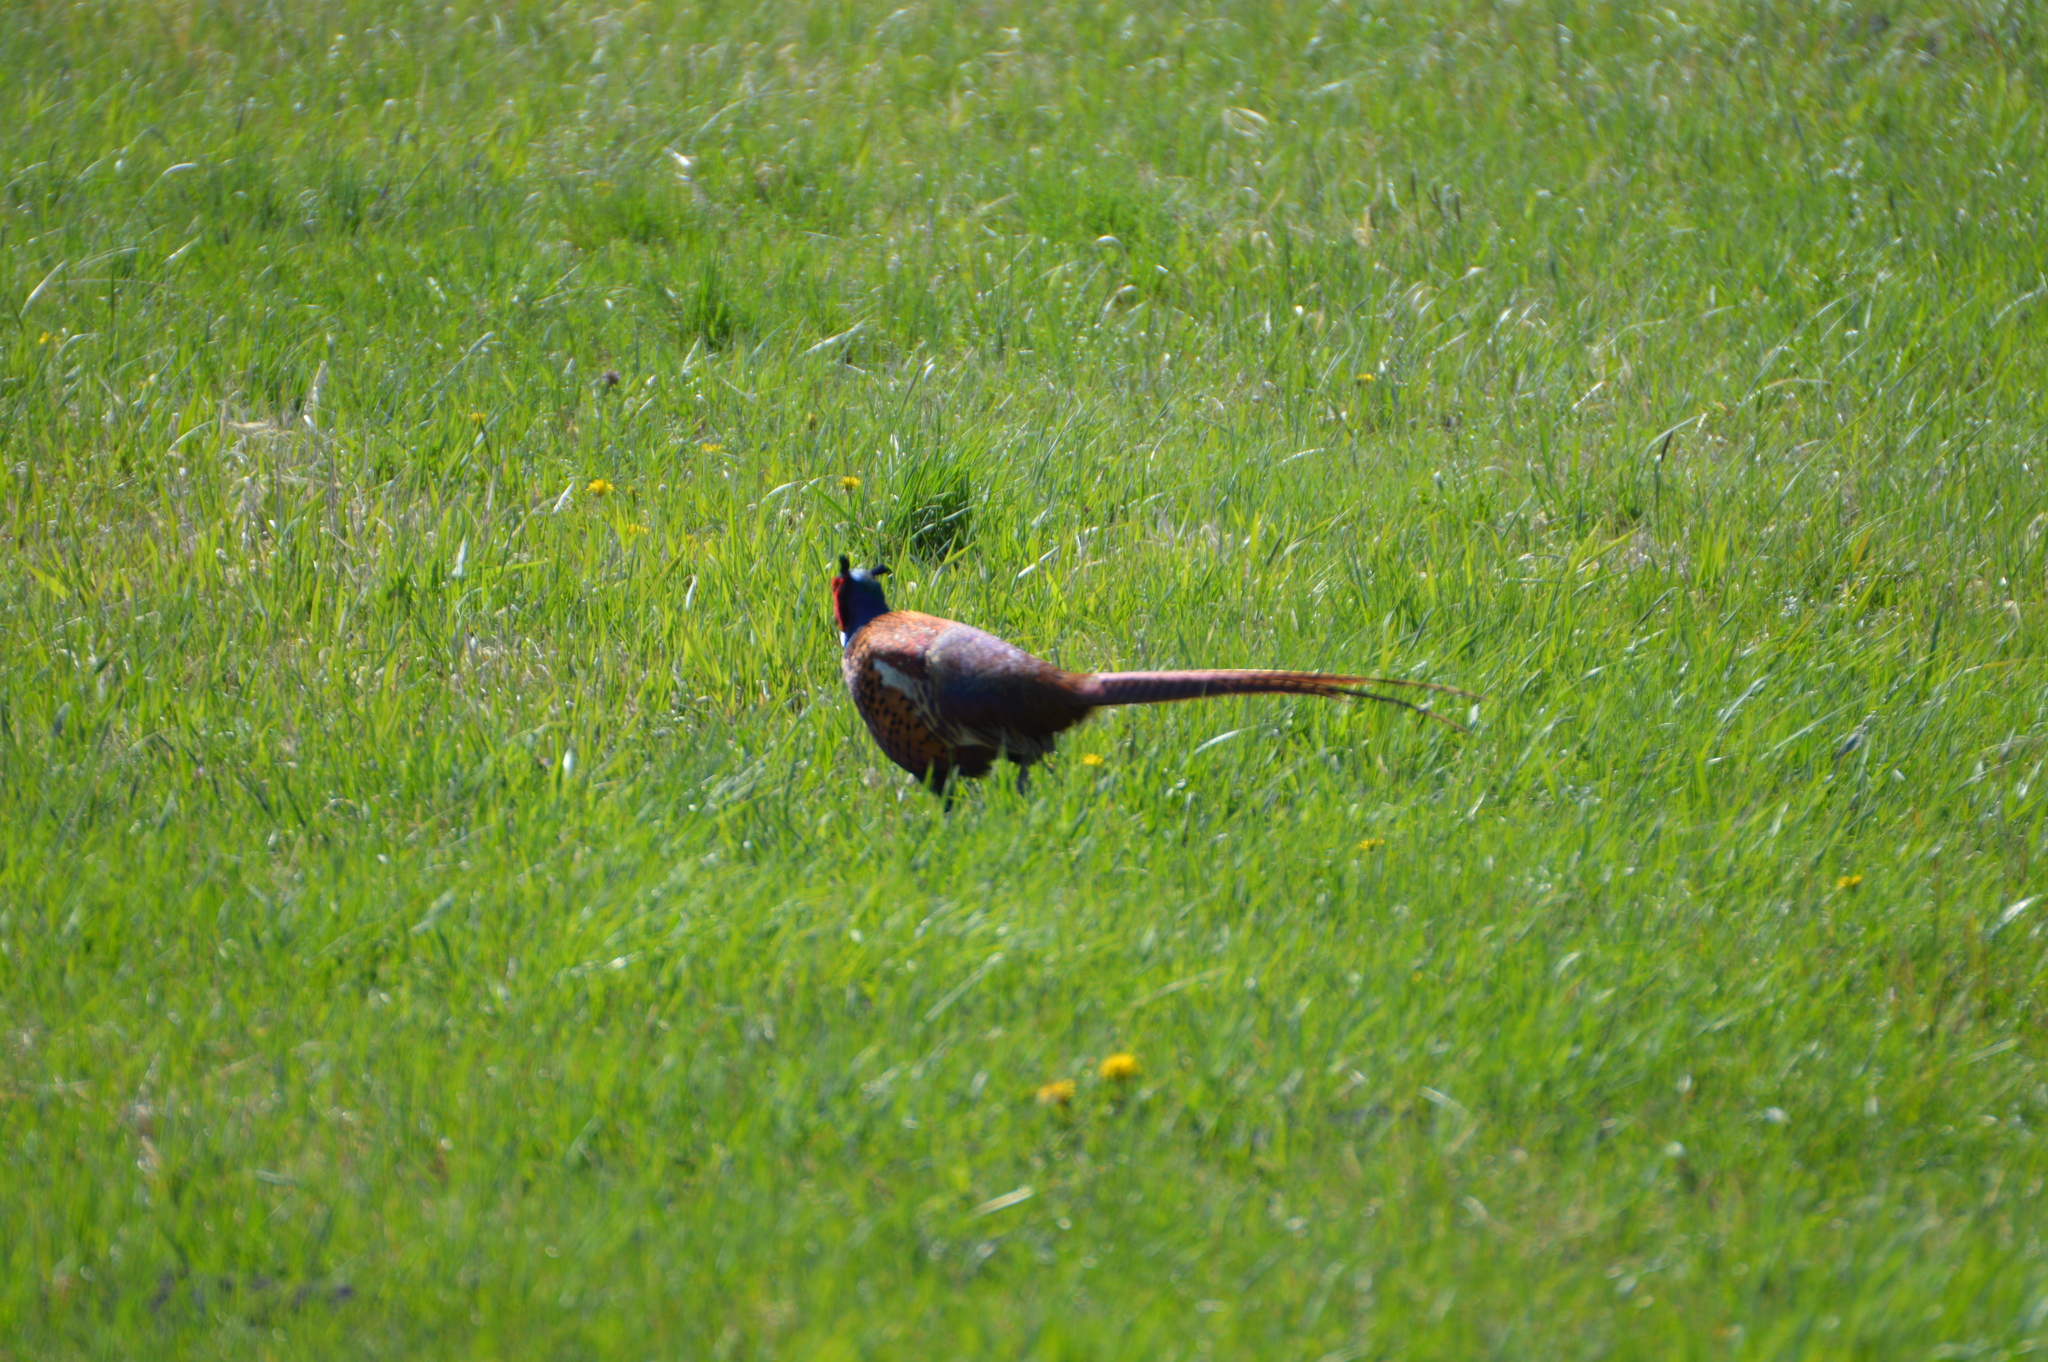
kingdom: Animalia
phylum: Chordata
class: Aves
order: Galliformes
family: Phasianidae
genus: Phasianus
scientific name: Phasianus colchicus
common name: Common pheasant
